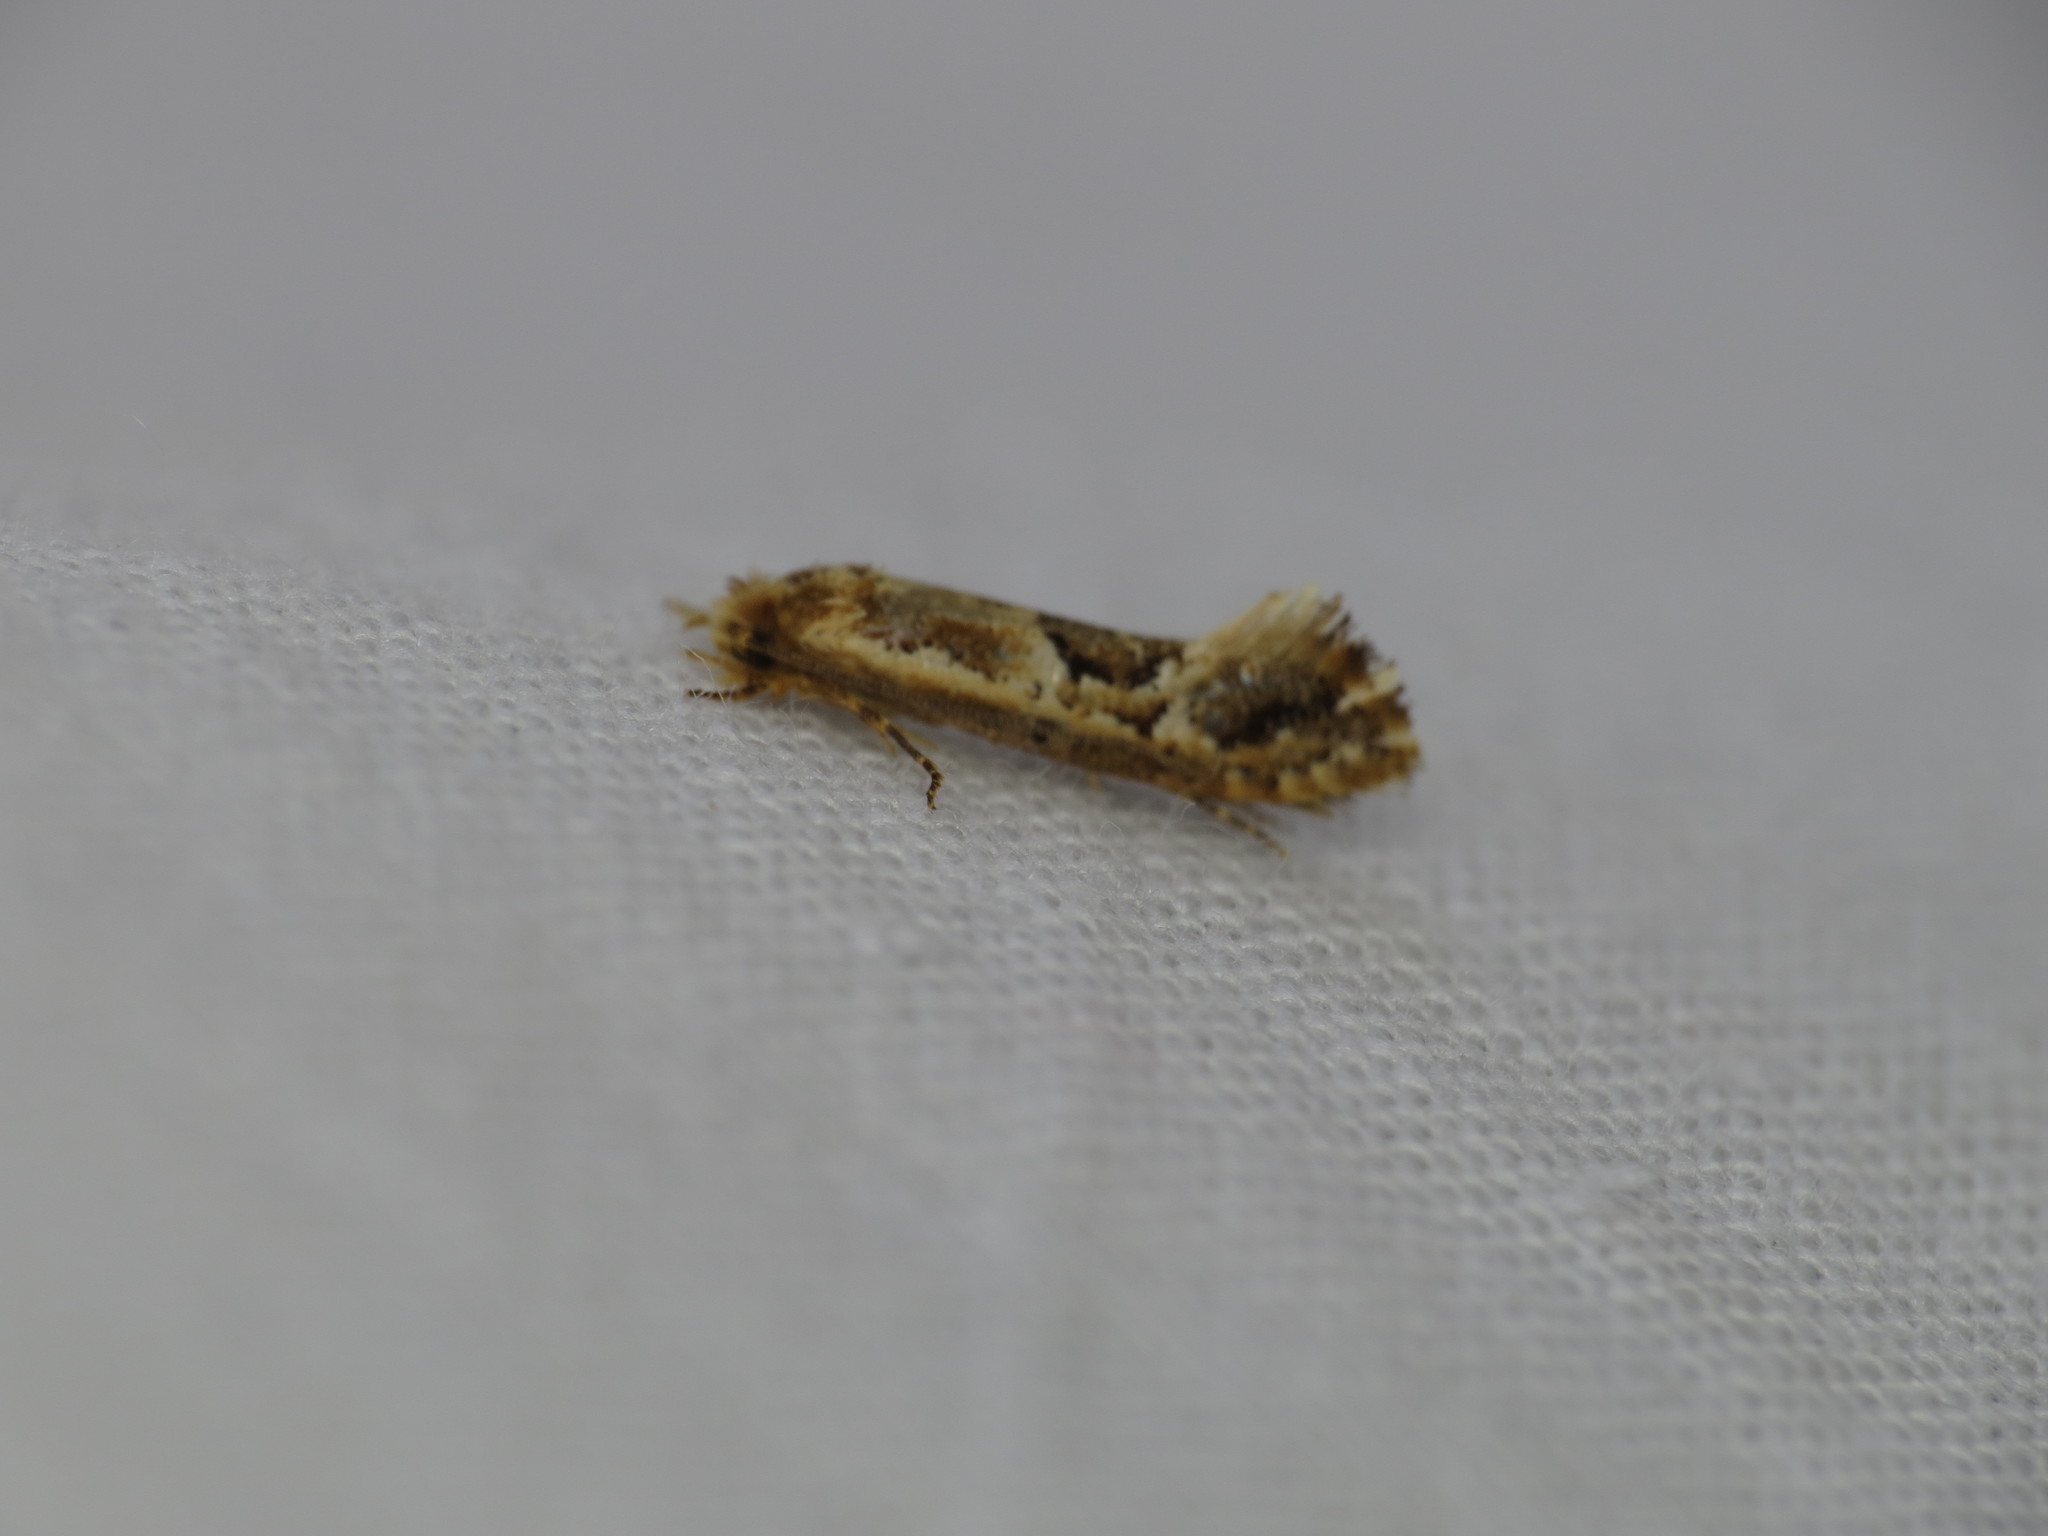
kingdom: Animalia
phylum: Arthropoda
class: Insecta
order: Lepidoptera
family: Tineidae
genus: Moerarchis
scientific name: Moerarchis inconcisella
